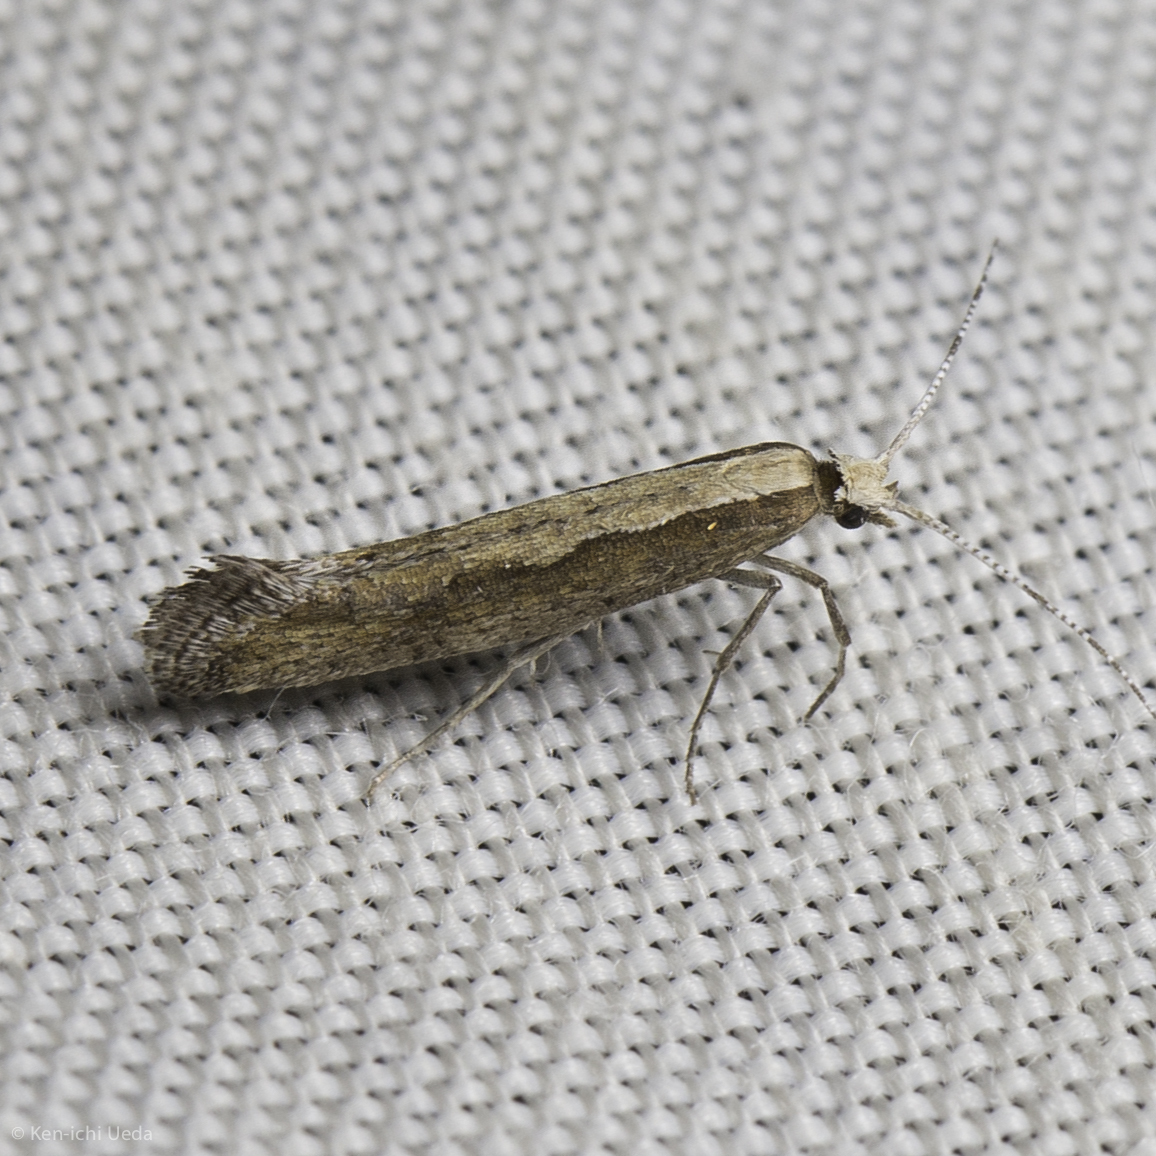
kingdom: Animalia
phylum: Arthropoda
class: Insecta
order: Lepidoptera
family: Plutellidae
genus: Plutella
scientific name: Plutella xylostella
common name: Diamond-back moth
